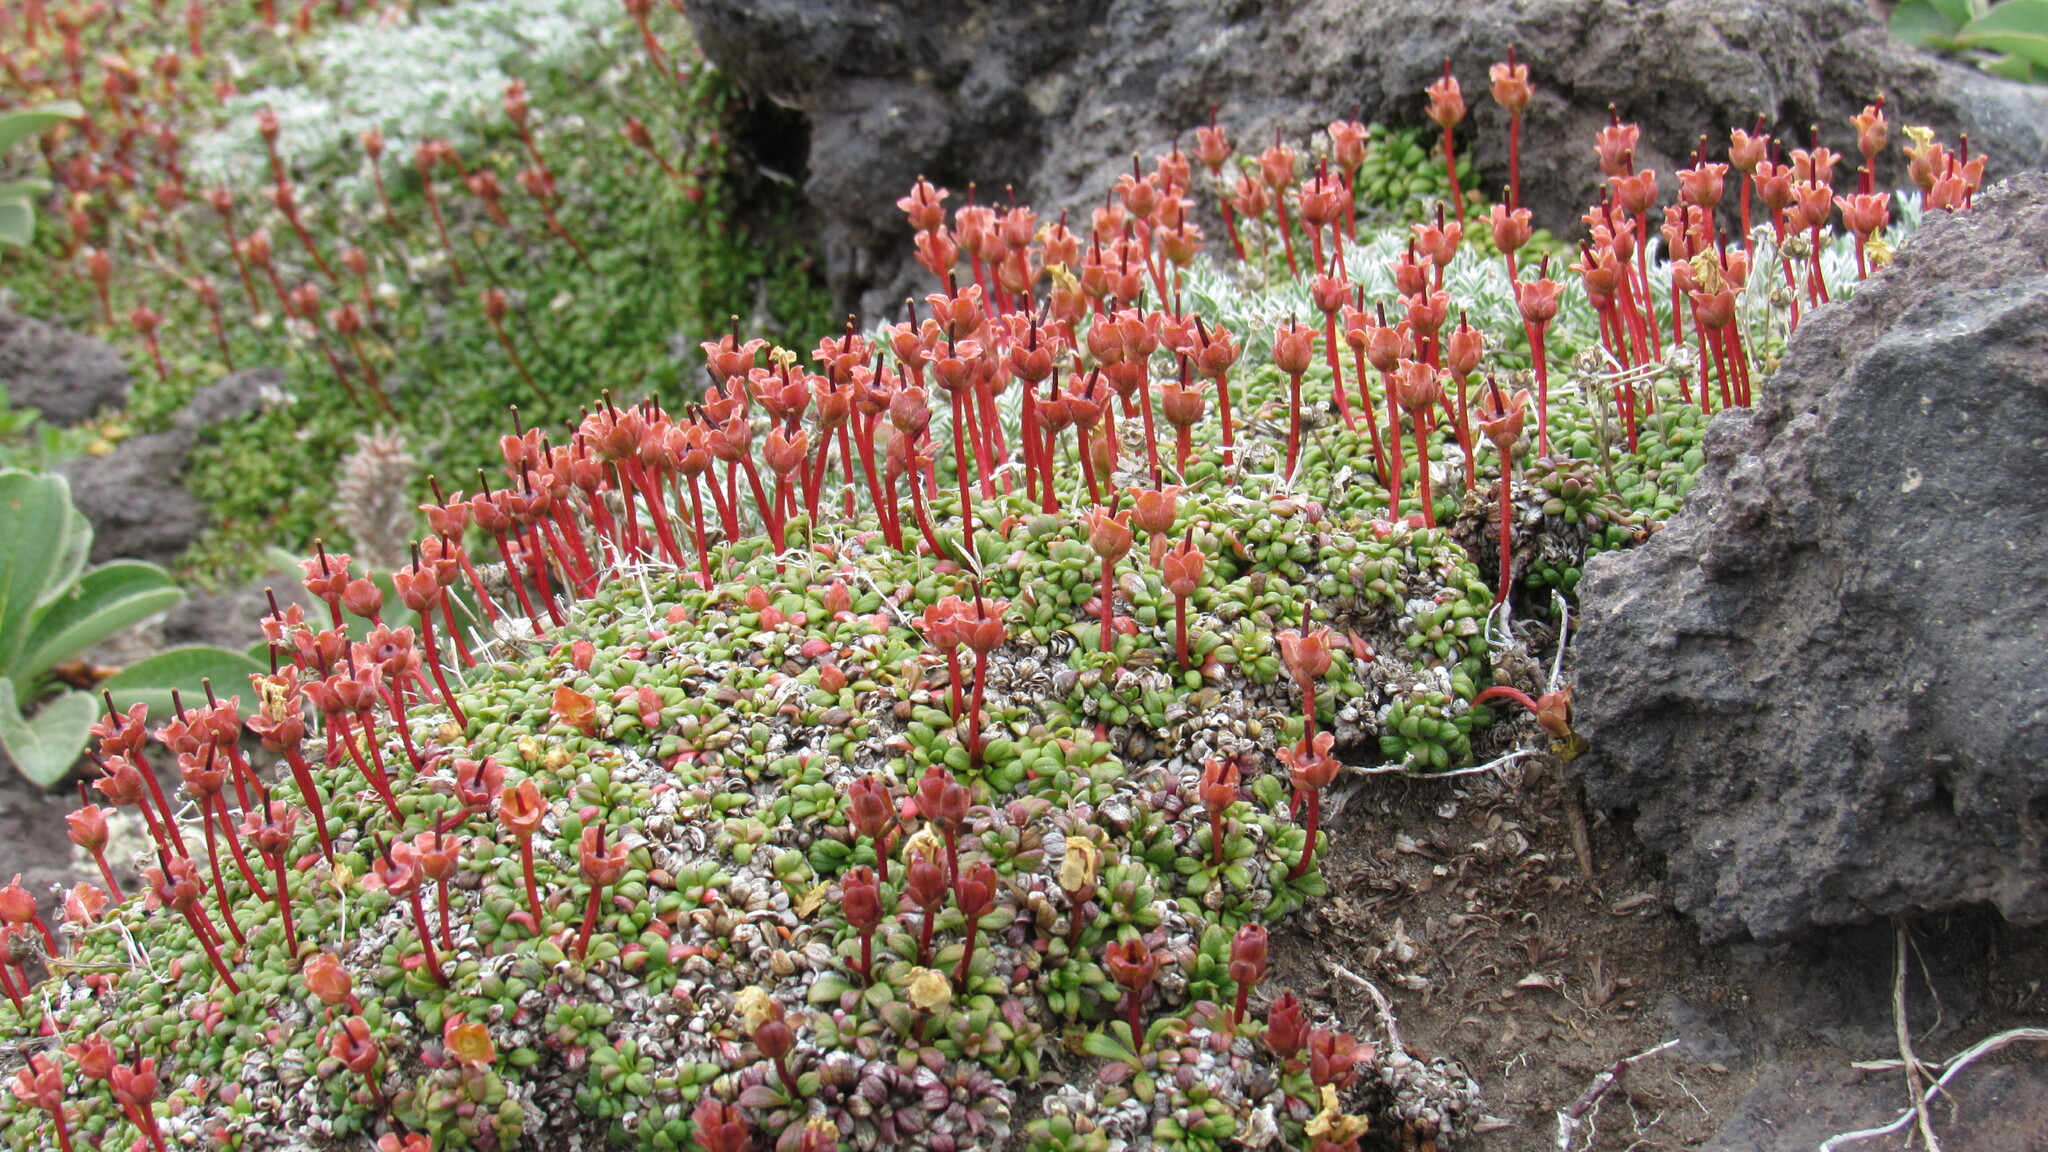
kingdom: Plantae
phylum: Tracheophyta
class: Magnoliopsida
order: Ericales
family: Diapensiaceae
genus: Diapensia
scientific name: Diapensia obovata
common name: Alaska diapensia
